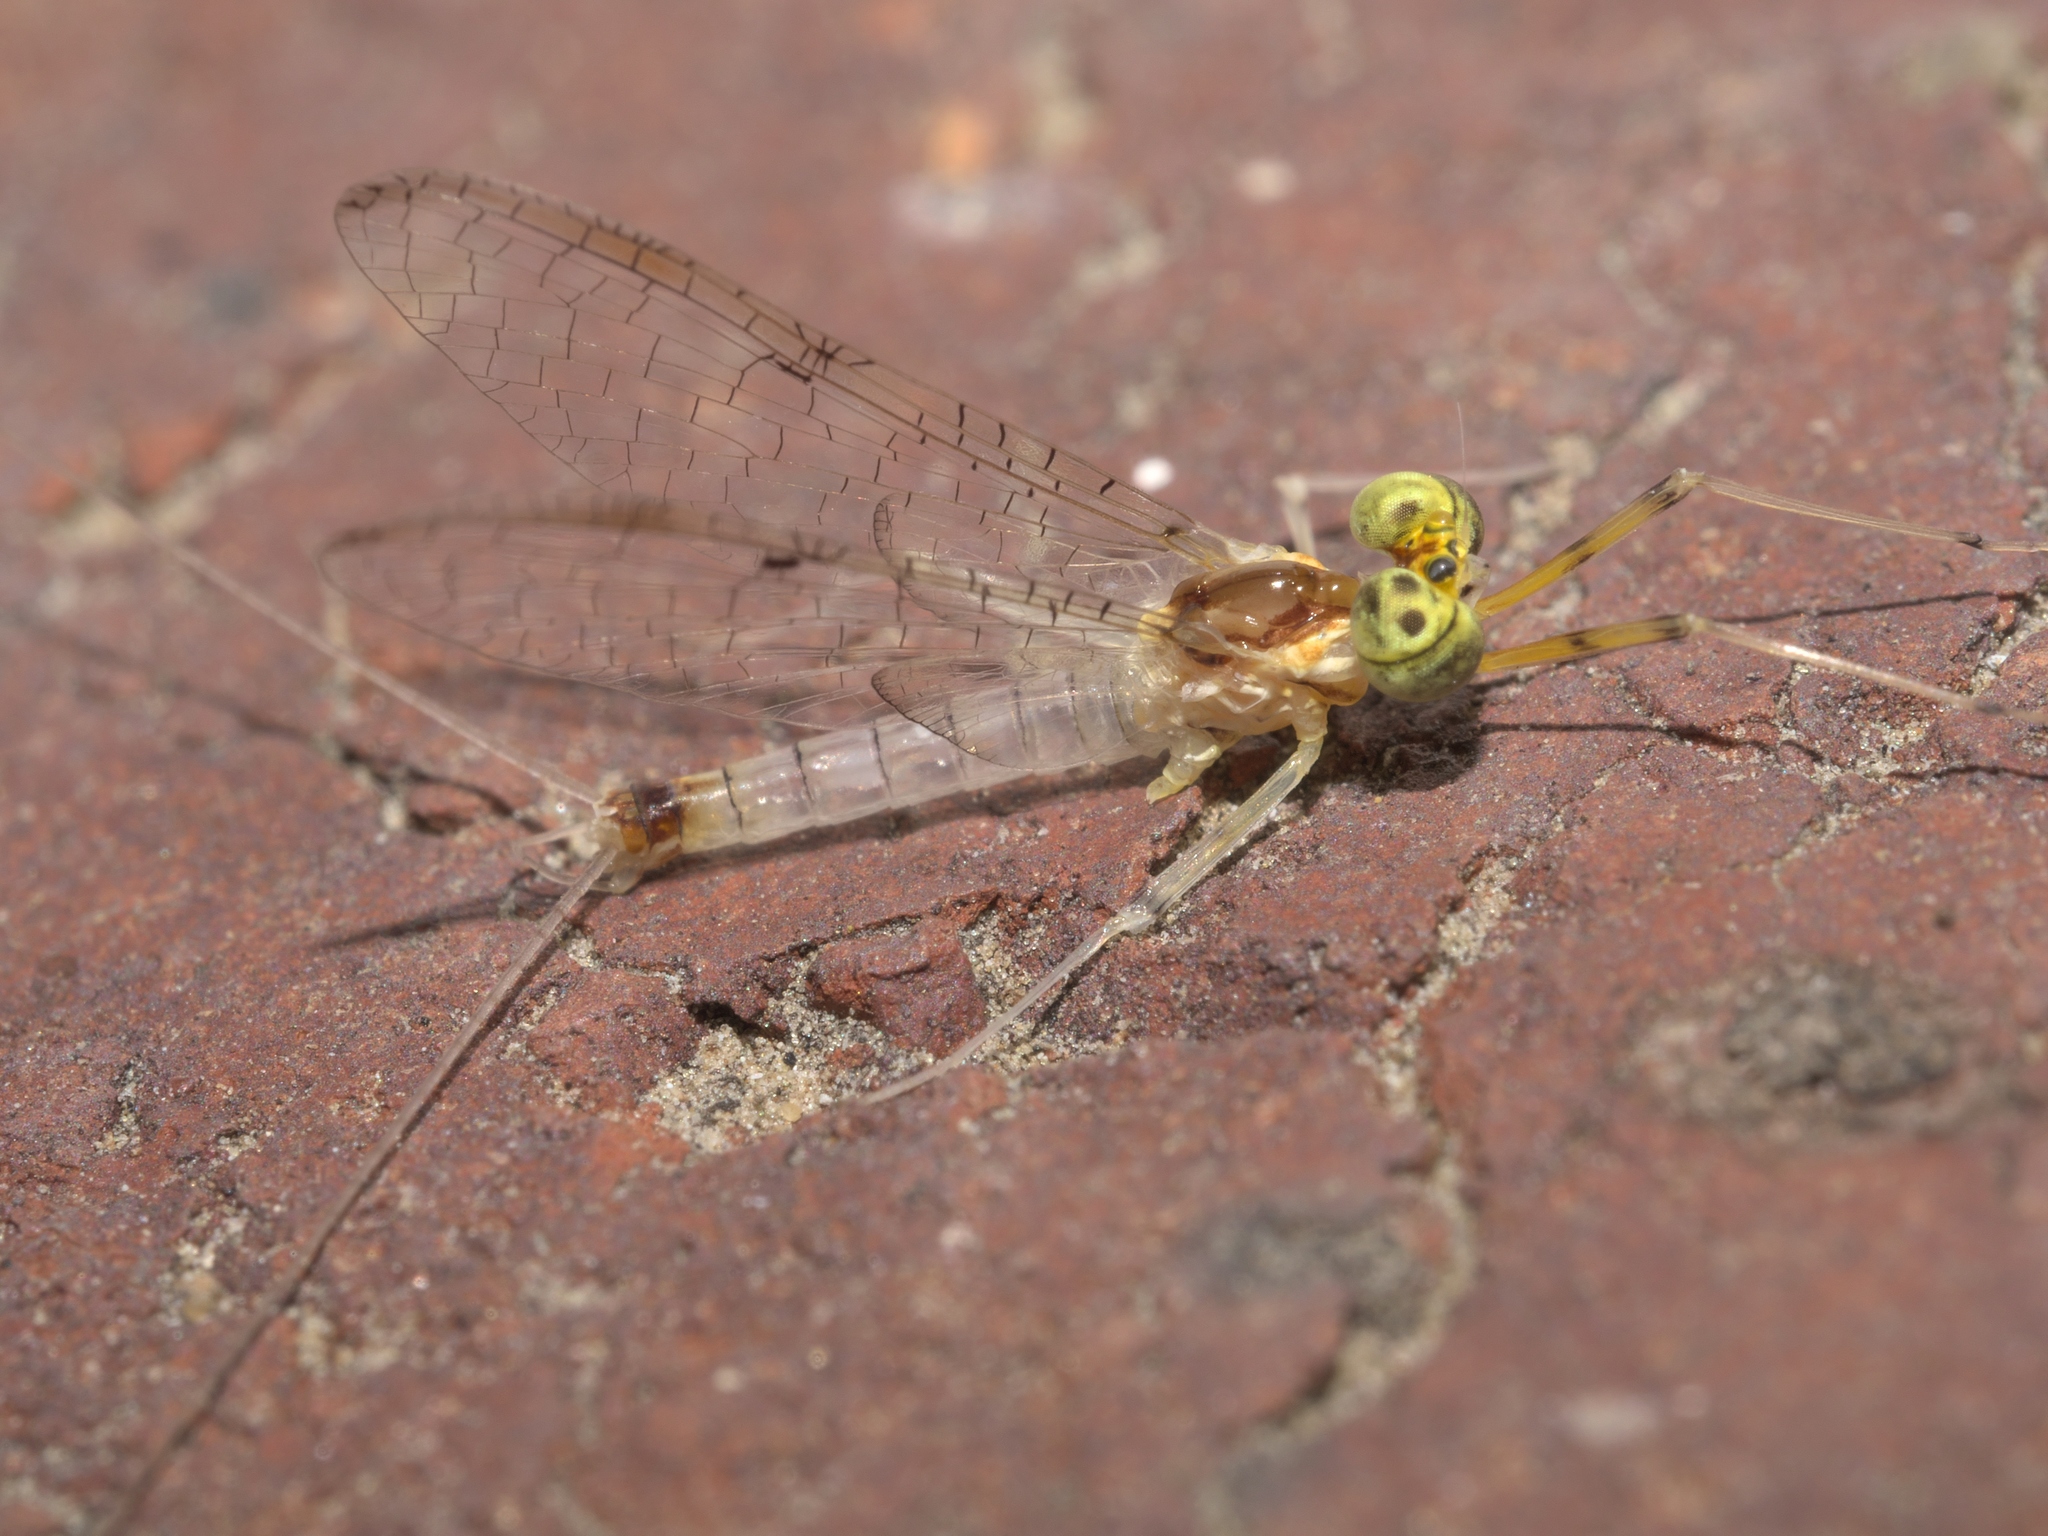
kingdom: Animalia
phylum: Arthropoda
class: Insecta
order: Ephemeroptera
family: Heptageniidae
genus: Stenacron
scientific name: Stenacron interpunctatum
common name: Orange cahill
